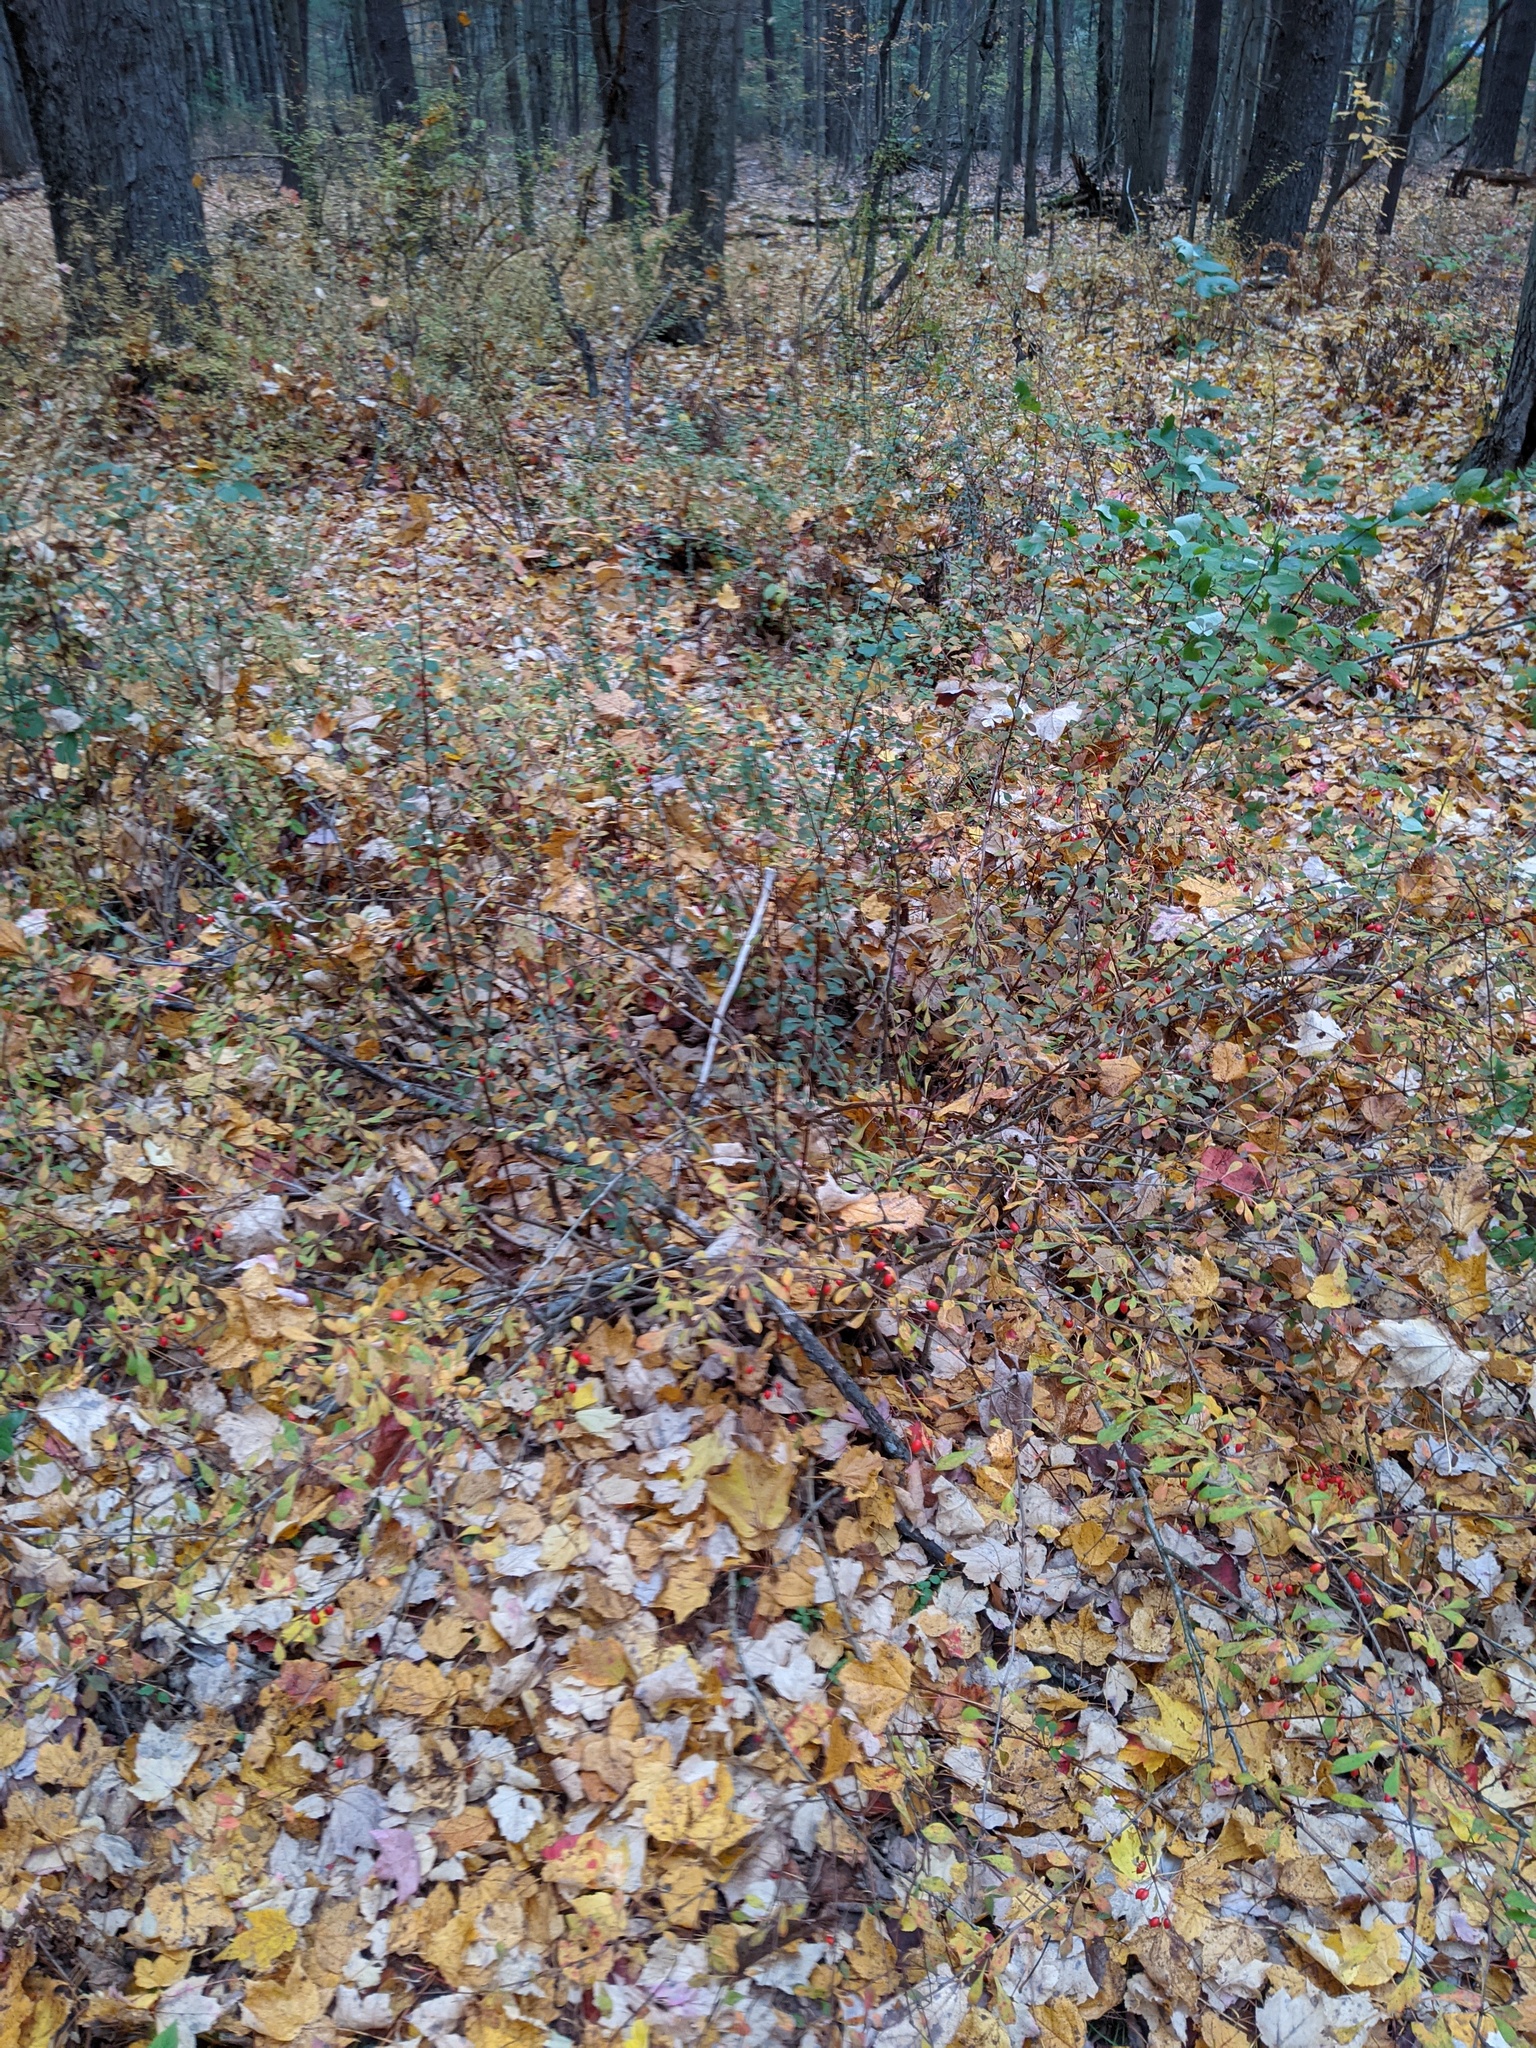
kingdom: Plantae
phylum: Tracheophyta
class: Magnoliopsida
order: Ranunculales
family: Berberidaceae
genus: Berberis
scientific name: Berberis thunbergii
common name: Japanese barberry
